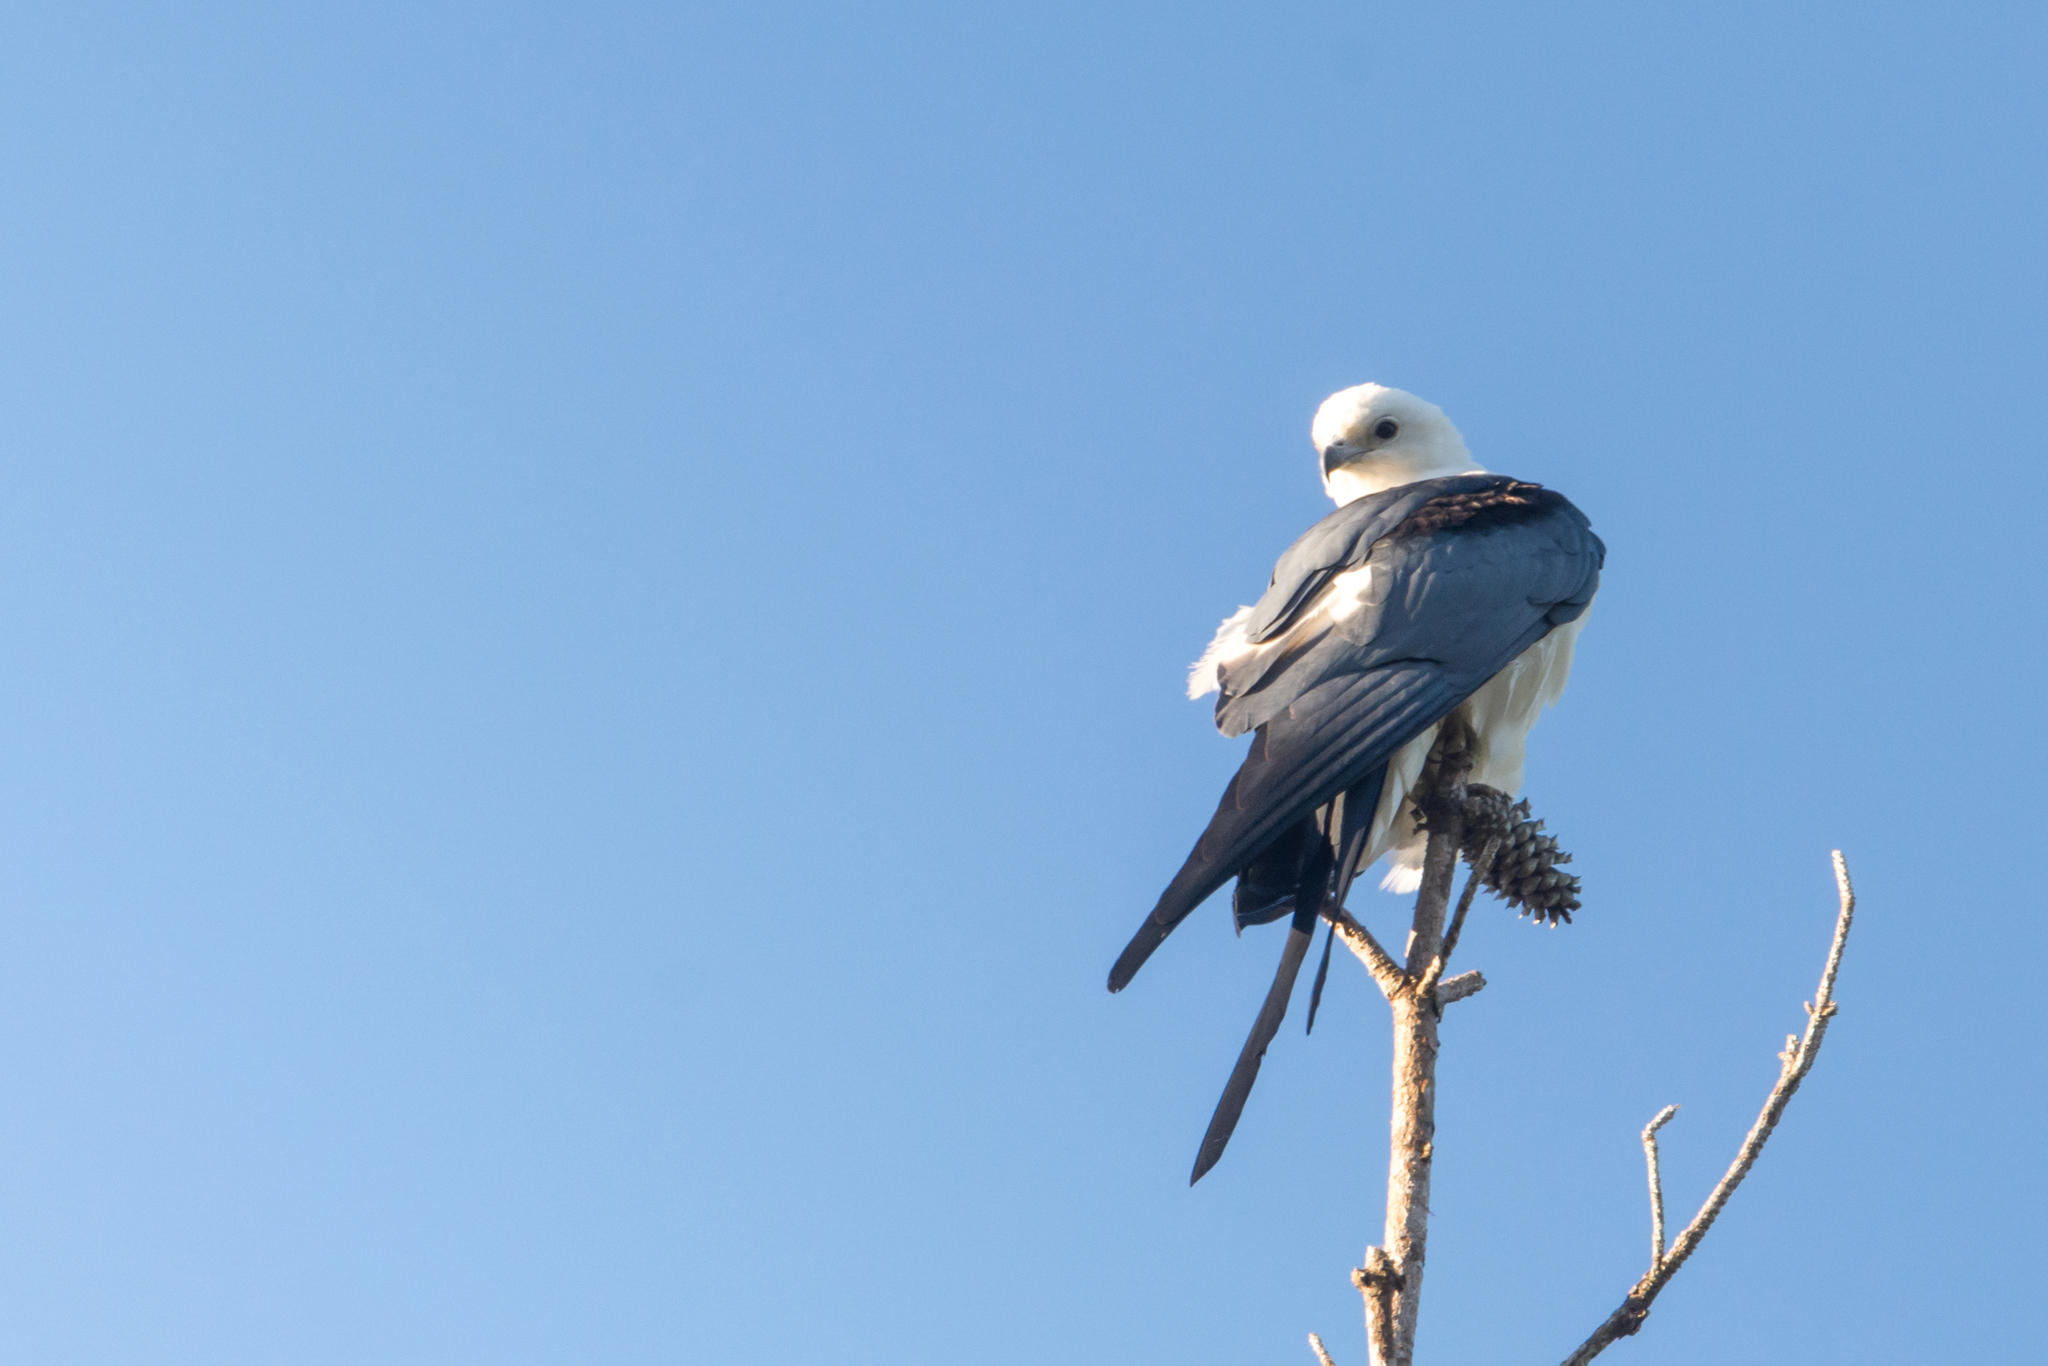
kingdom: Animalia
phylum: Chordata
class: Aves
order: Accipitriformes
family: Accipitridae
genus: Elanoides
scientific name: Elanoides forficatus
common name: Swallow-tailed kite
